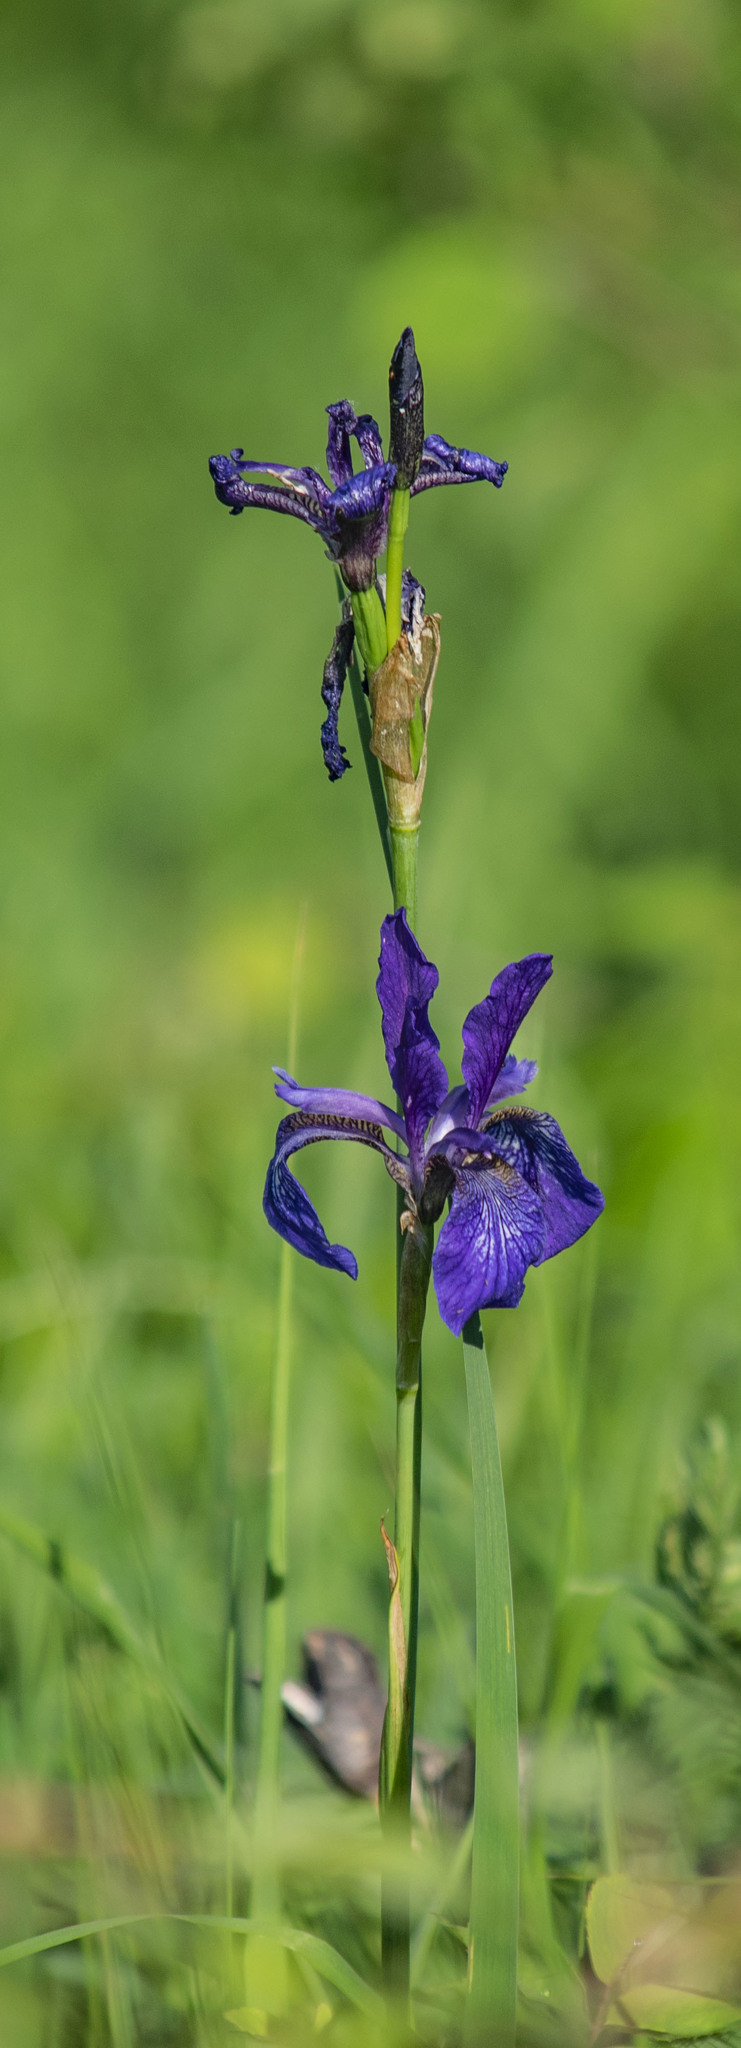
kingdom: Plantae
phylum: Tracheophyta
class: Liliopsida
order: Asparagales
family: Iridaceae
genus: Iris
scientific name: Iris sibirica
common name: Siberian iris
